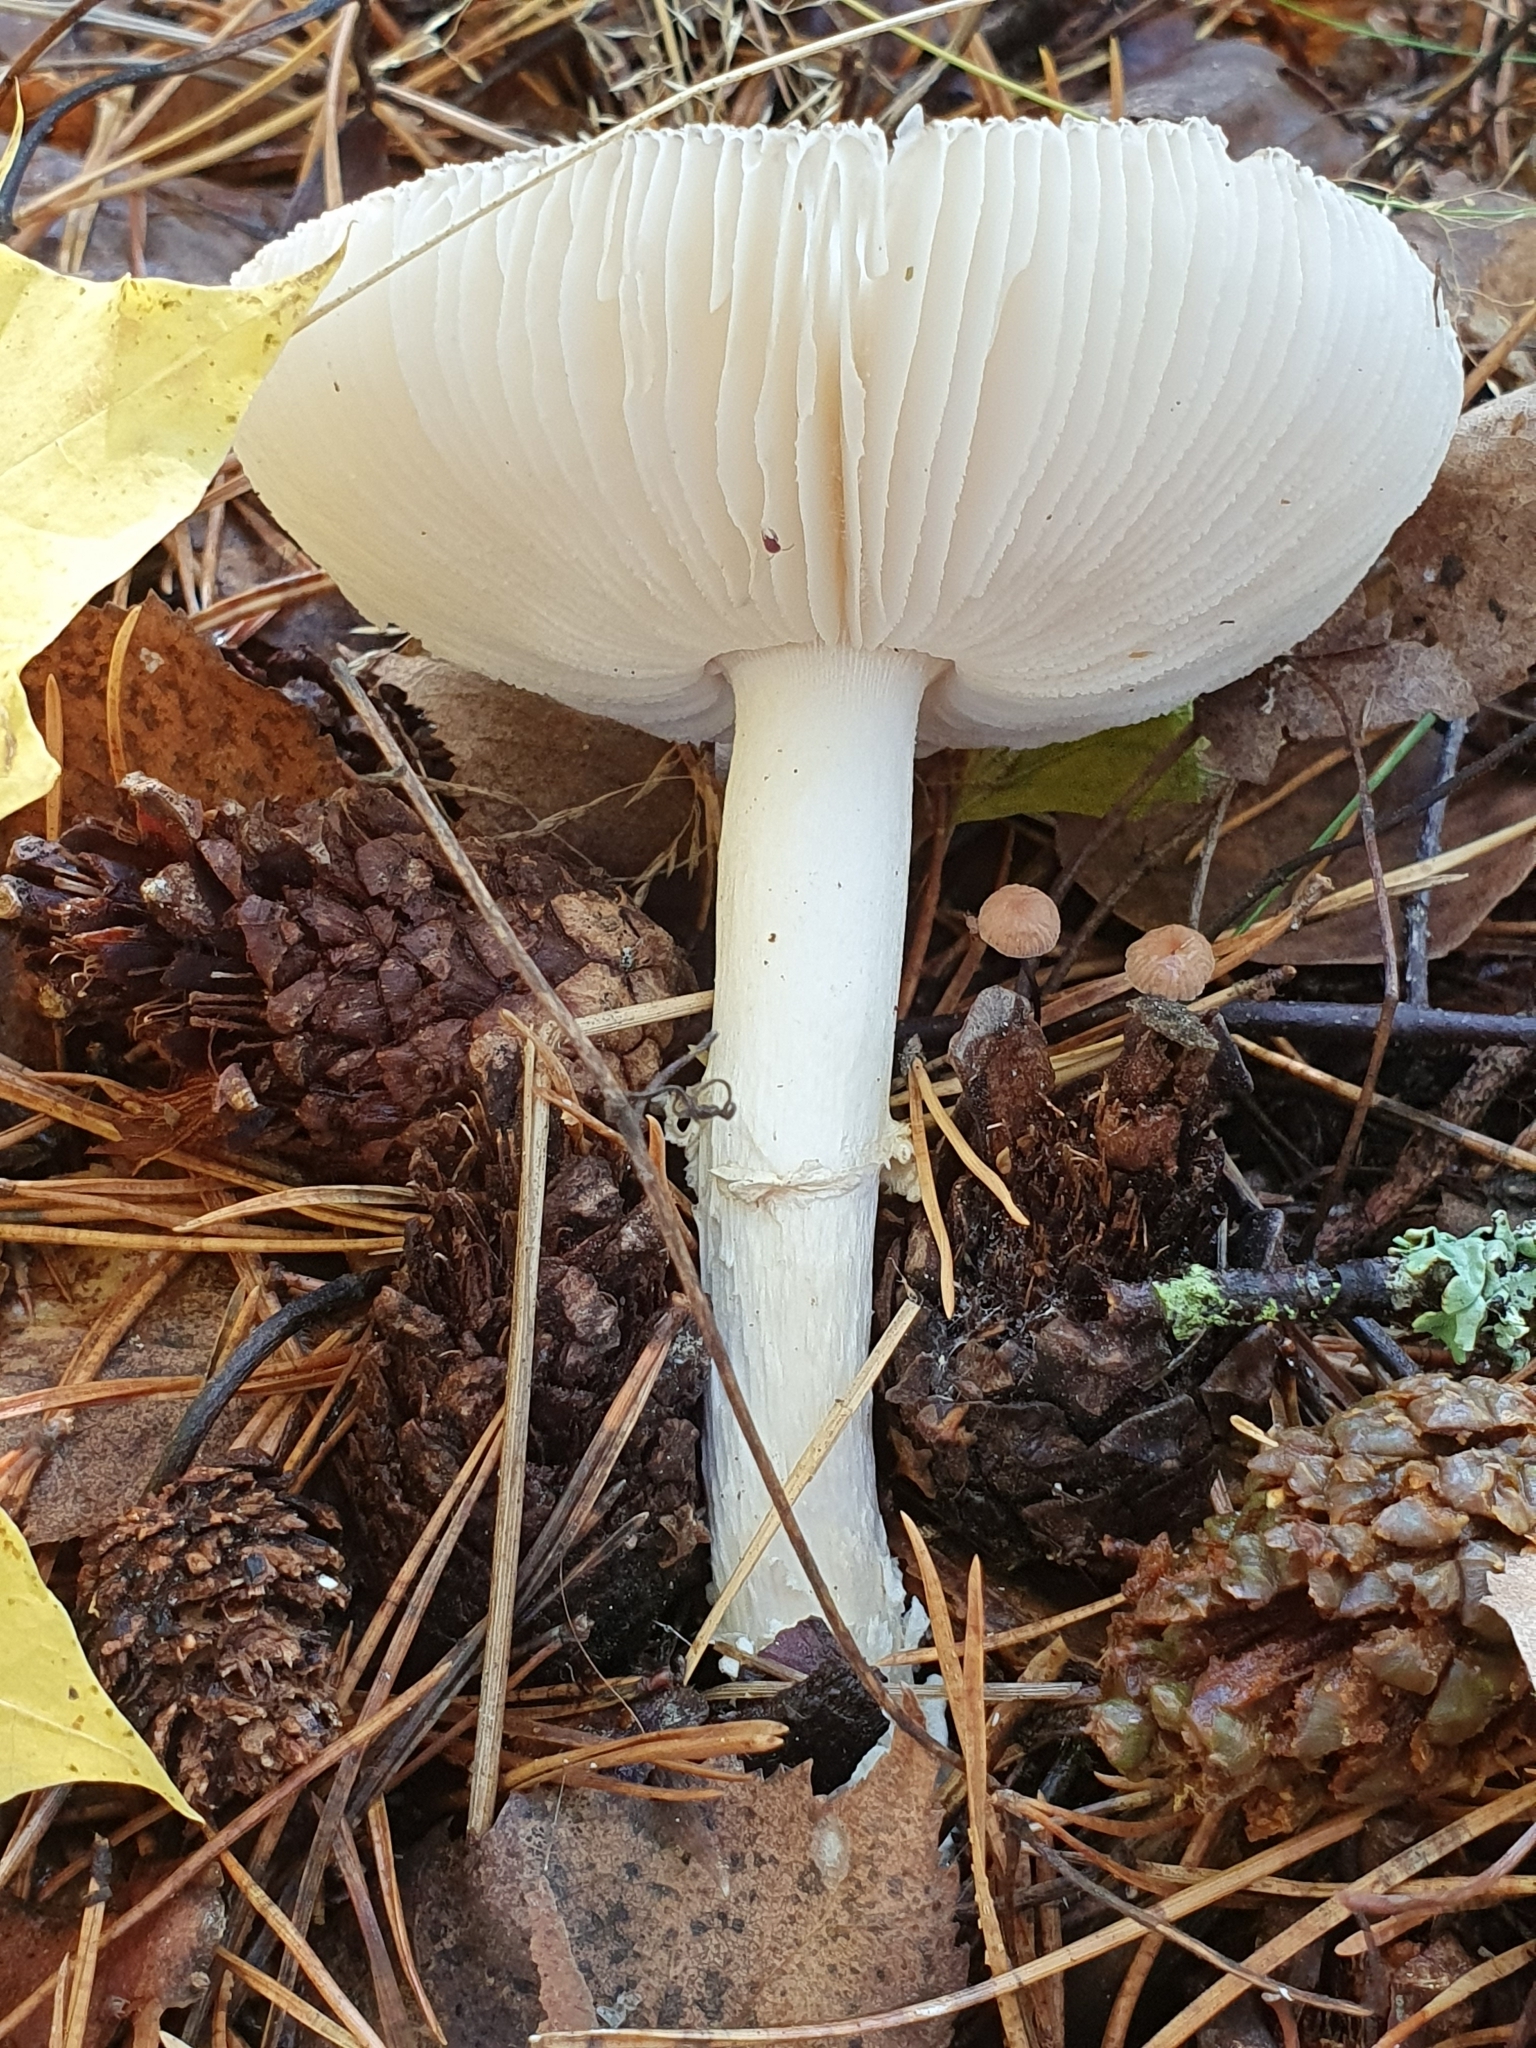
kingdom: Fungi
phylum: Basidiomycota
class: Agaricomycetes
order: Agaricales
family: Amanitaceae
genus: Amanita
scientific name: Amanita pantherina
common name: Panthercap
